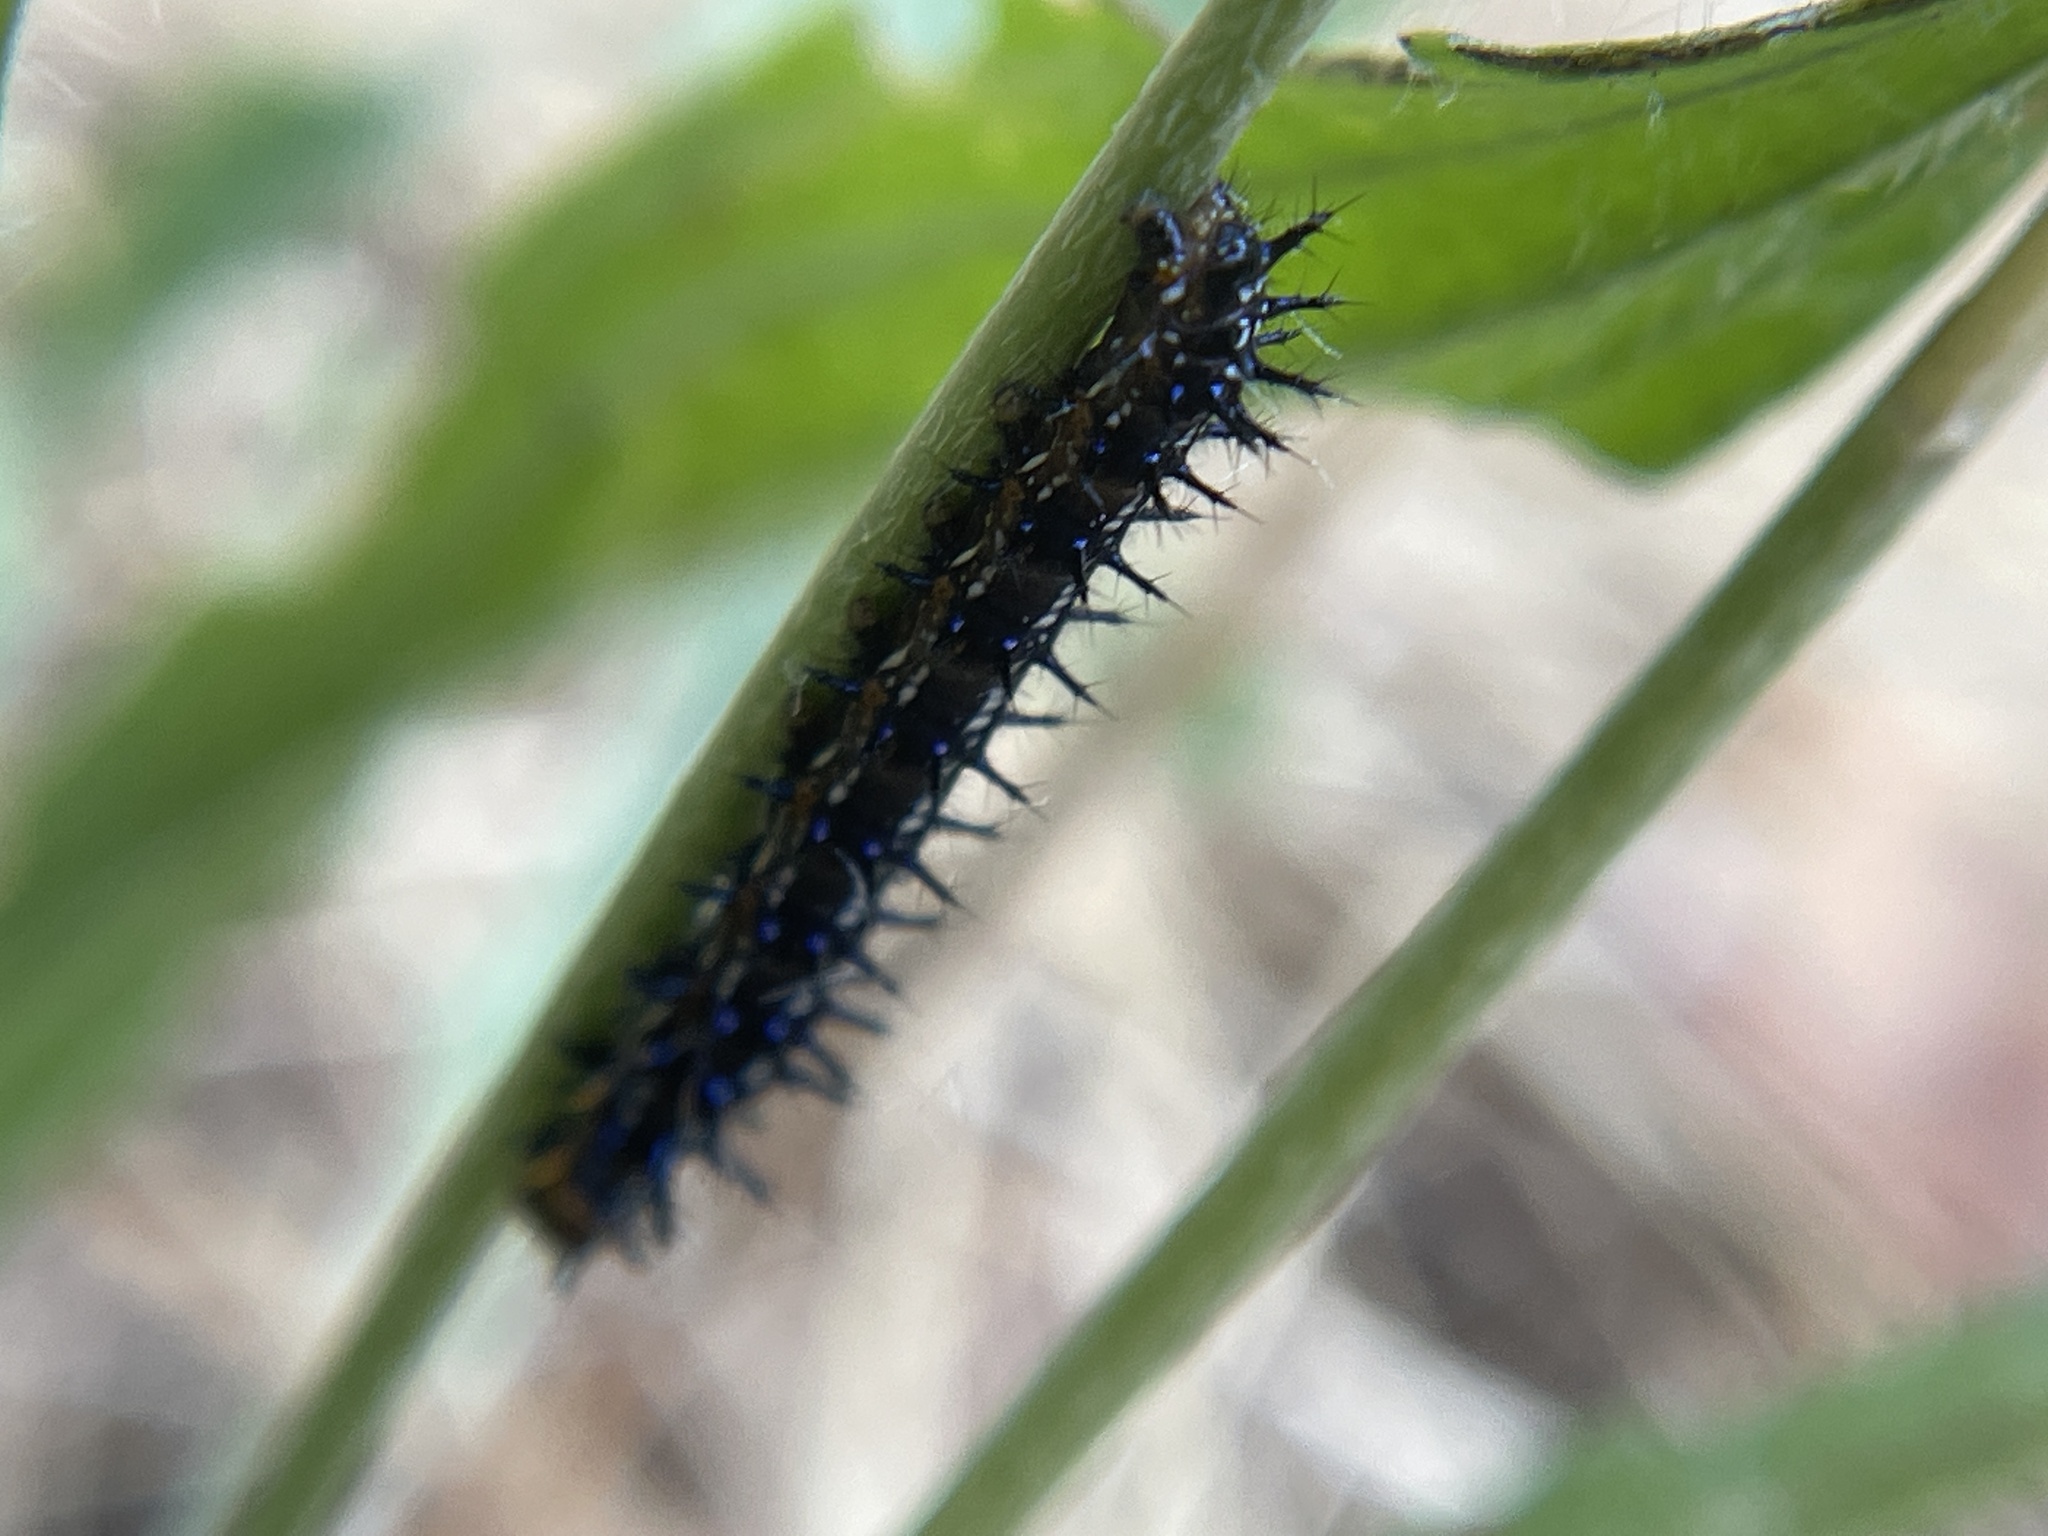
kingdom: Animalia
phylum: Arthropoda
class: Insecta
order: Lepidoptera
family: Nymphalidae
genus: Junonia
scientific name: Junonia grisea
